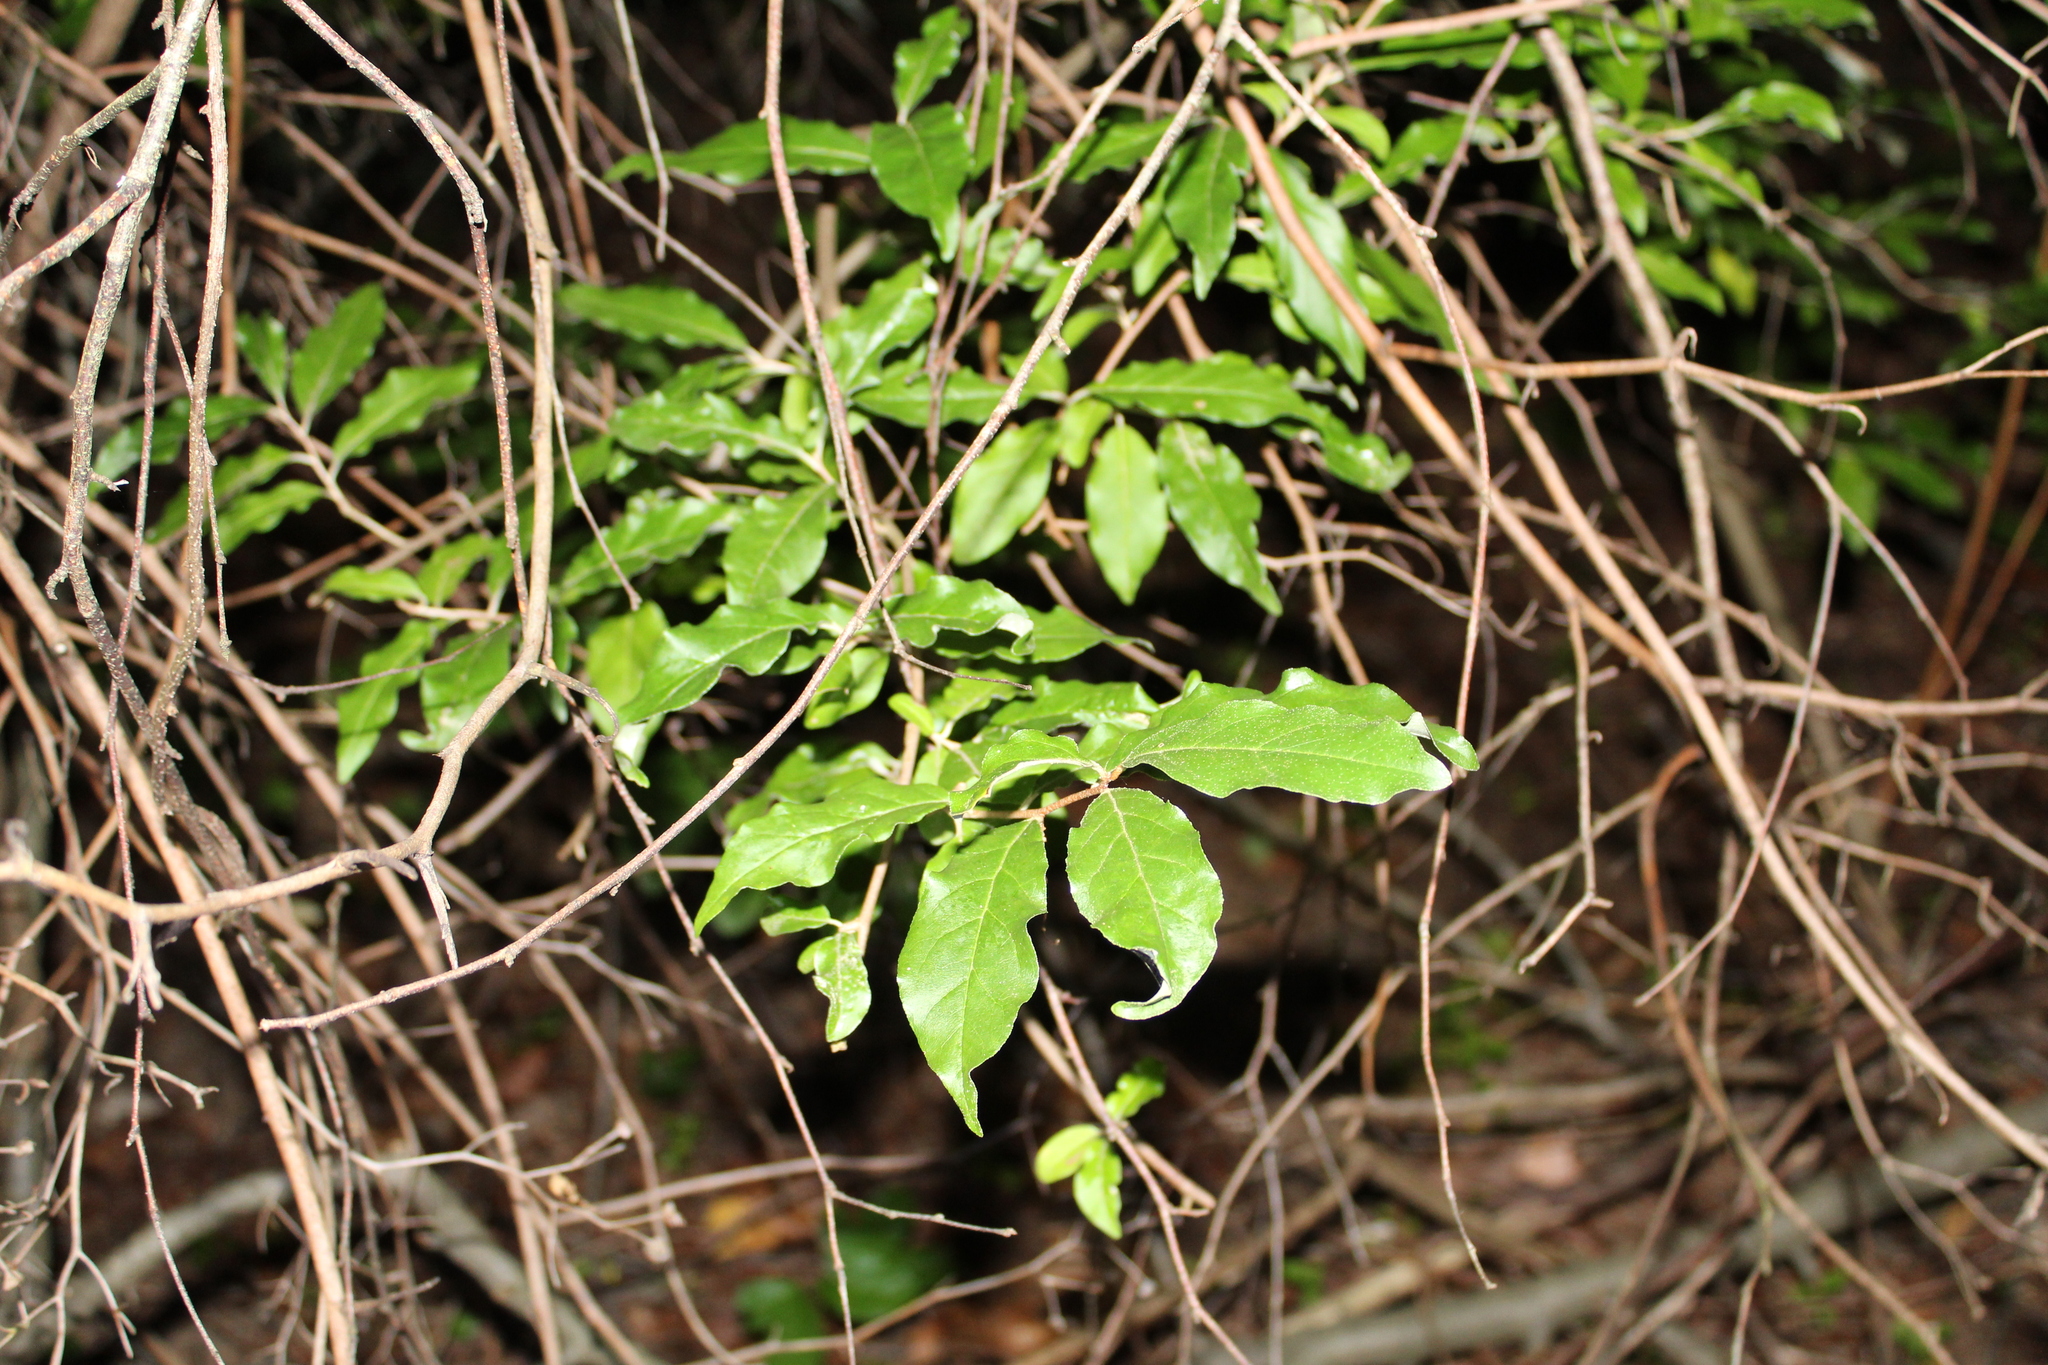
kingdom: Plantae
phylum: Tracheophyta
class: Magnoliopsida
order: Rosales
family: Elaeagnaceae
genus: Elaeagnus
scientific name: Elaeagnus umbellata
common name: Autumn olive
